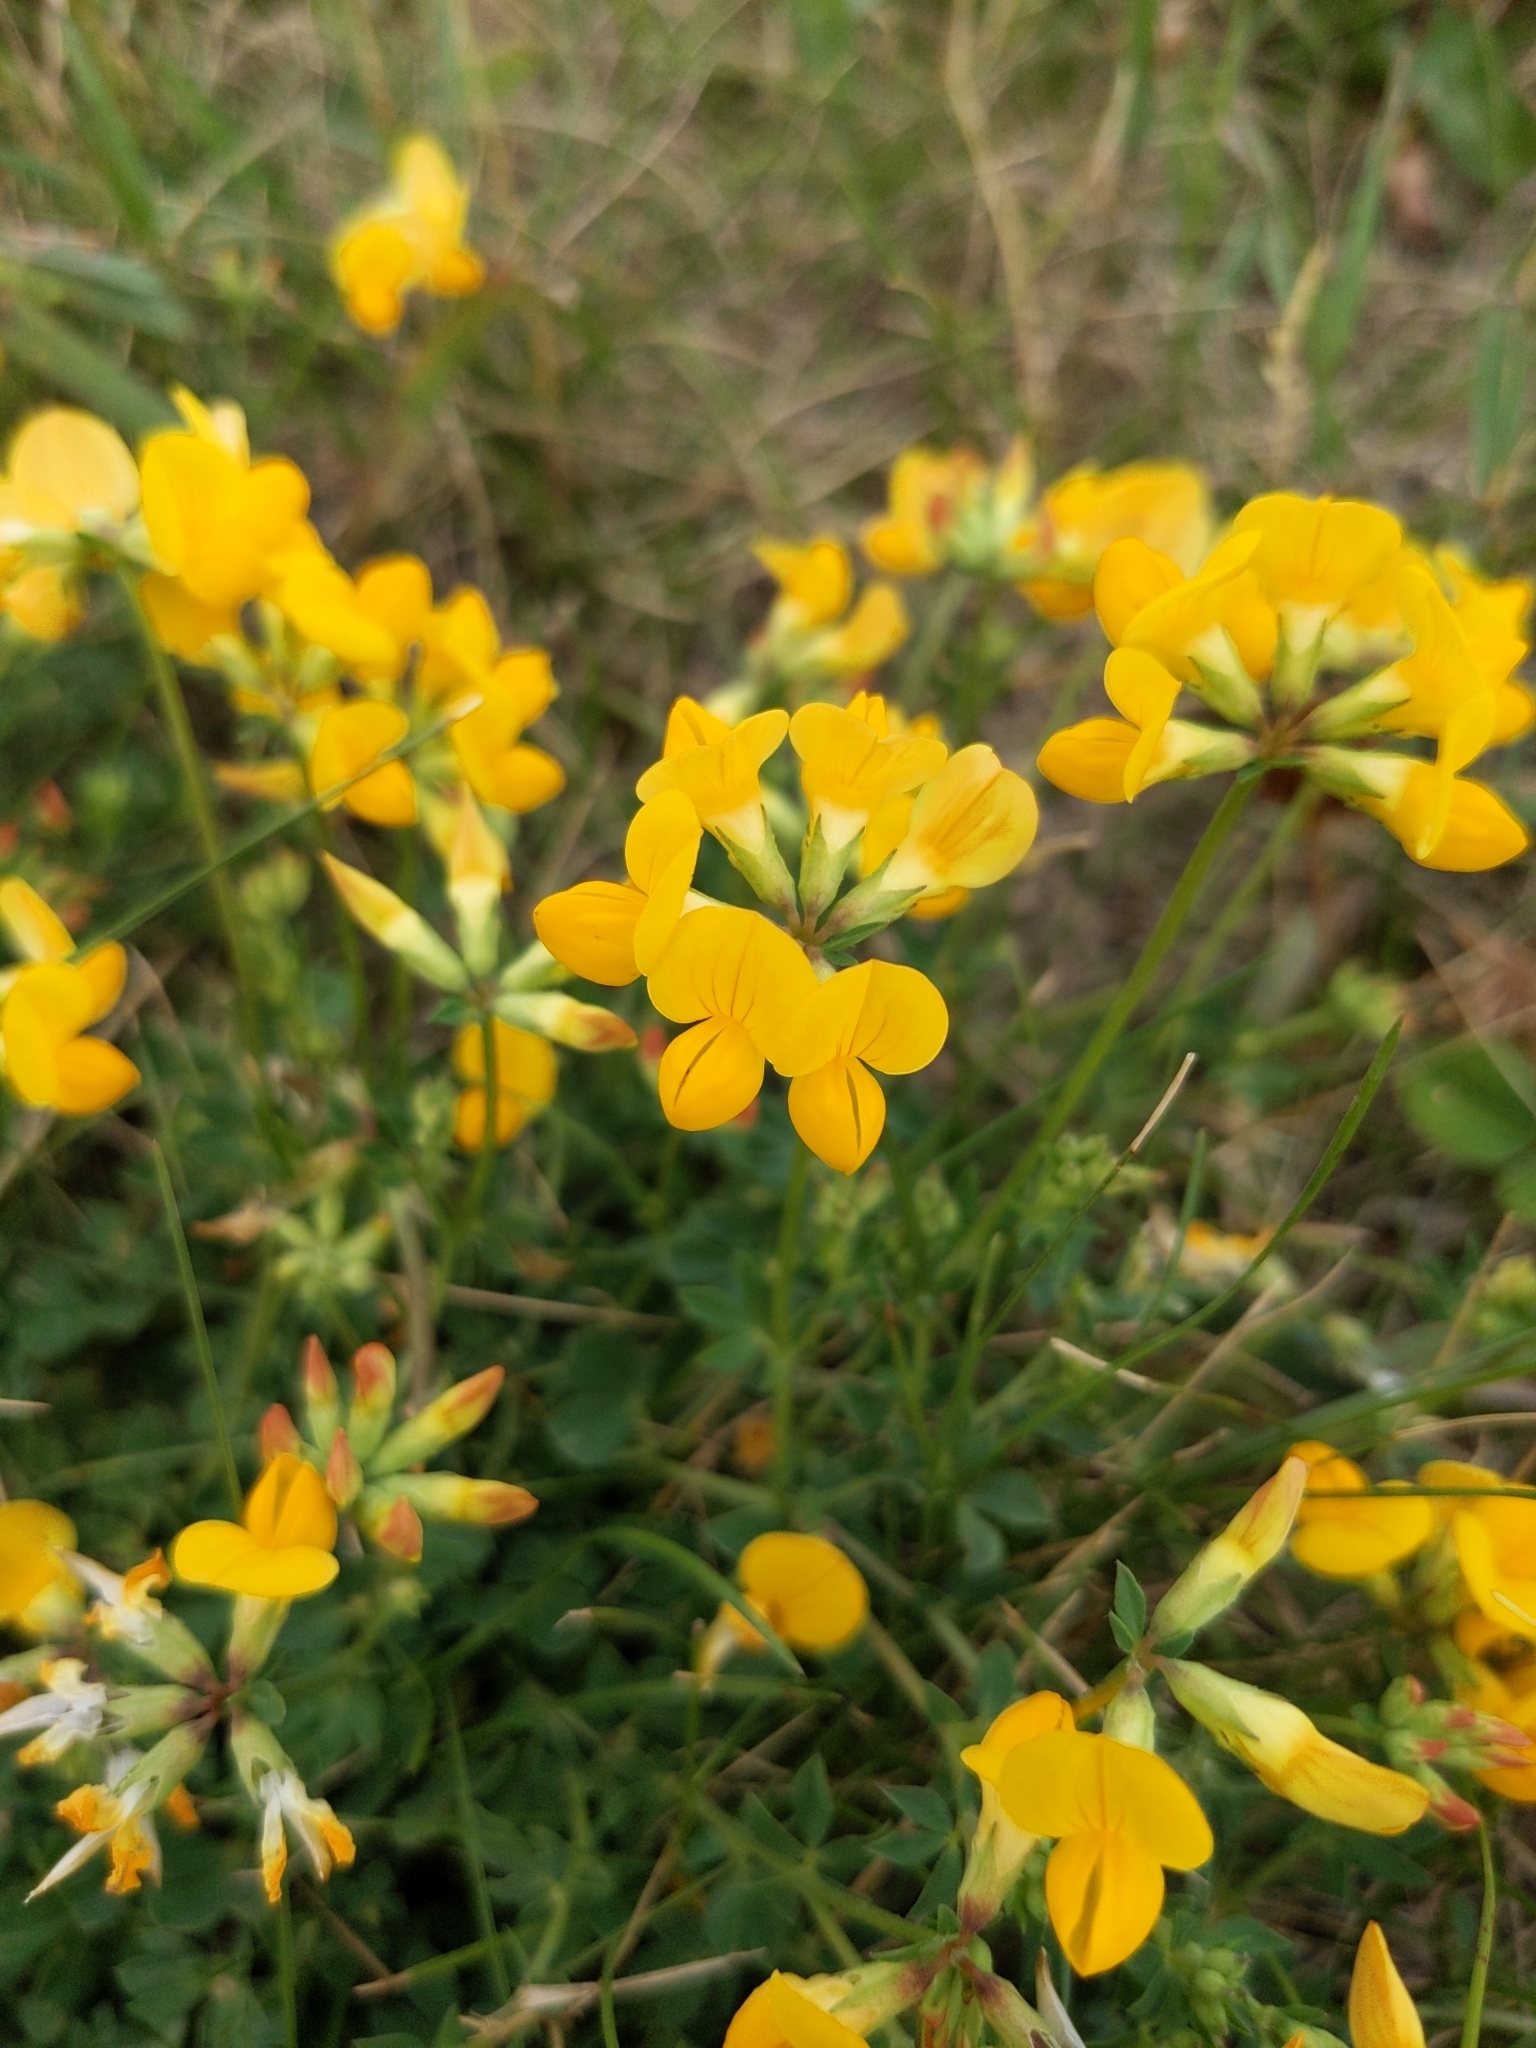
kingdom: Plantae
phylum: Tracheophyta
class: Magnoliopsida
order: Fabales
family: Fabaceae
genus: Lotus
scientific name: Lotus corniculatus
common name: Common bird's-foot-trefoil
